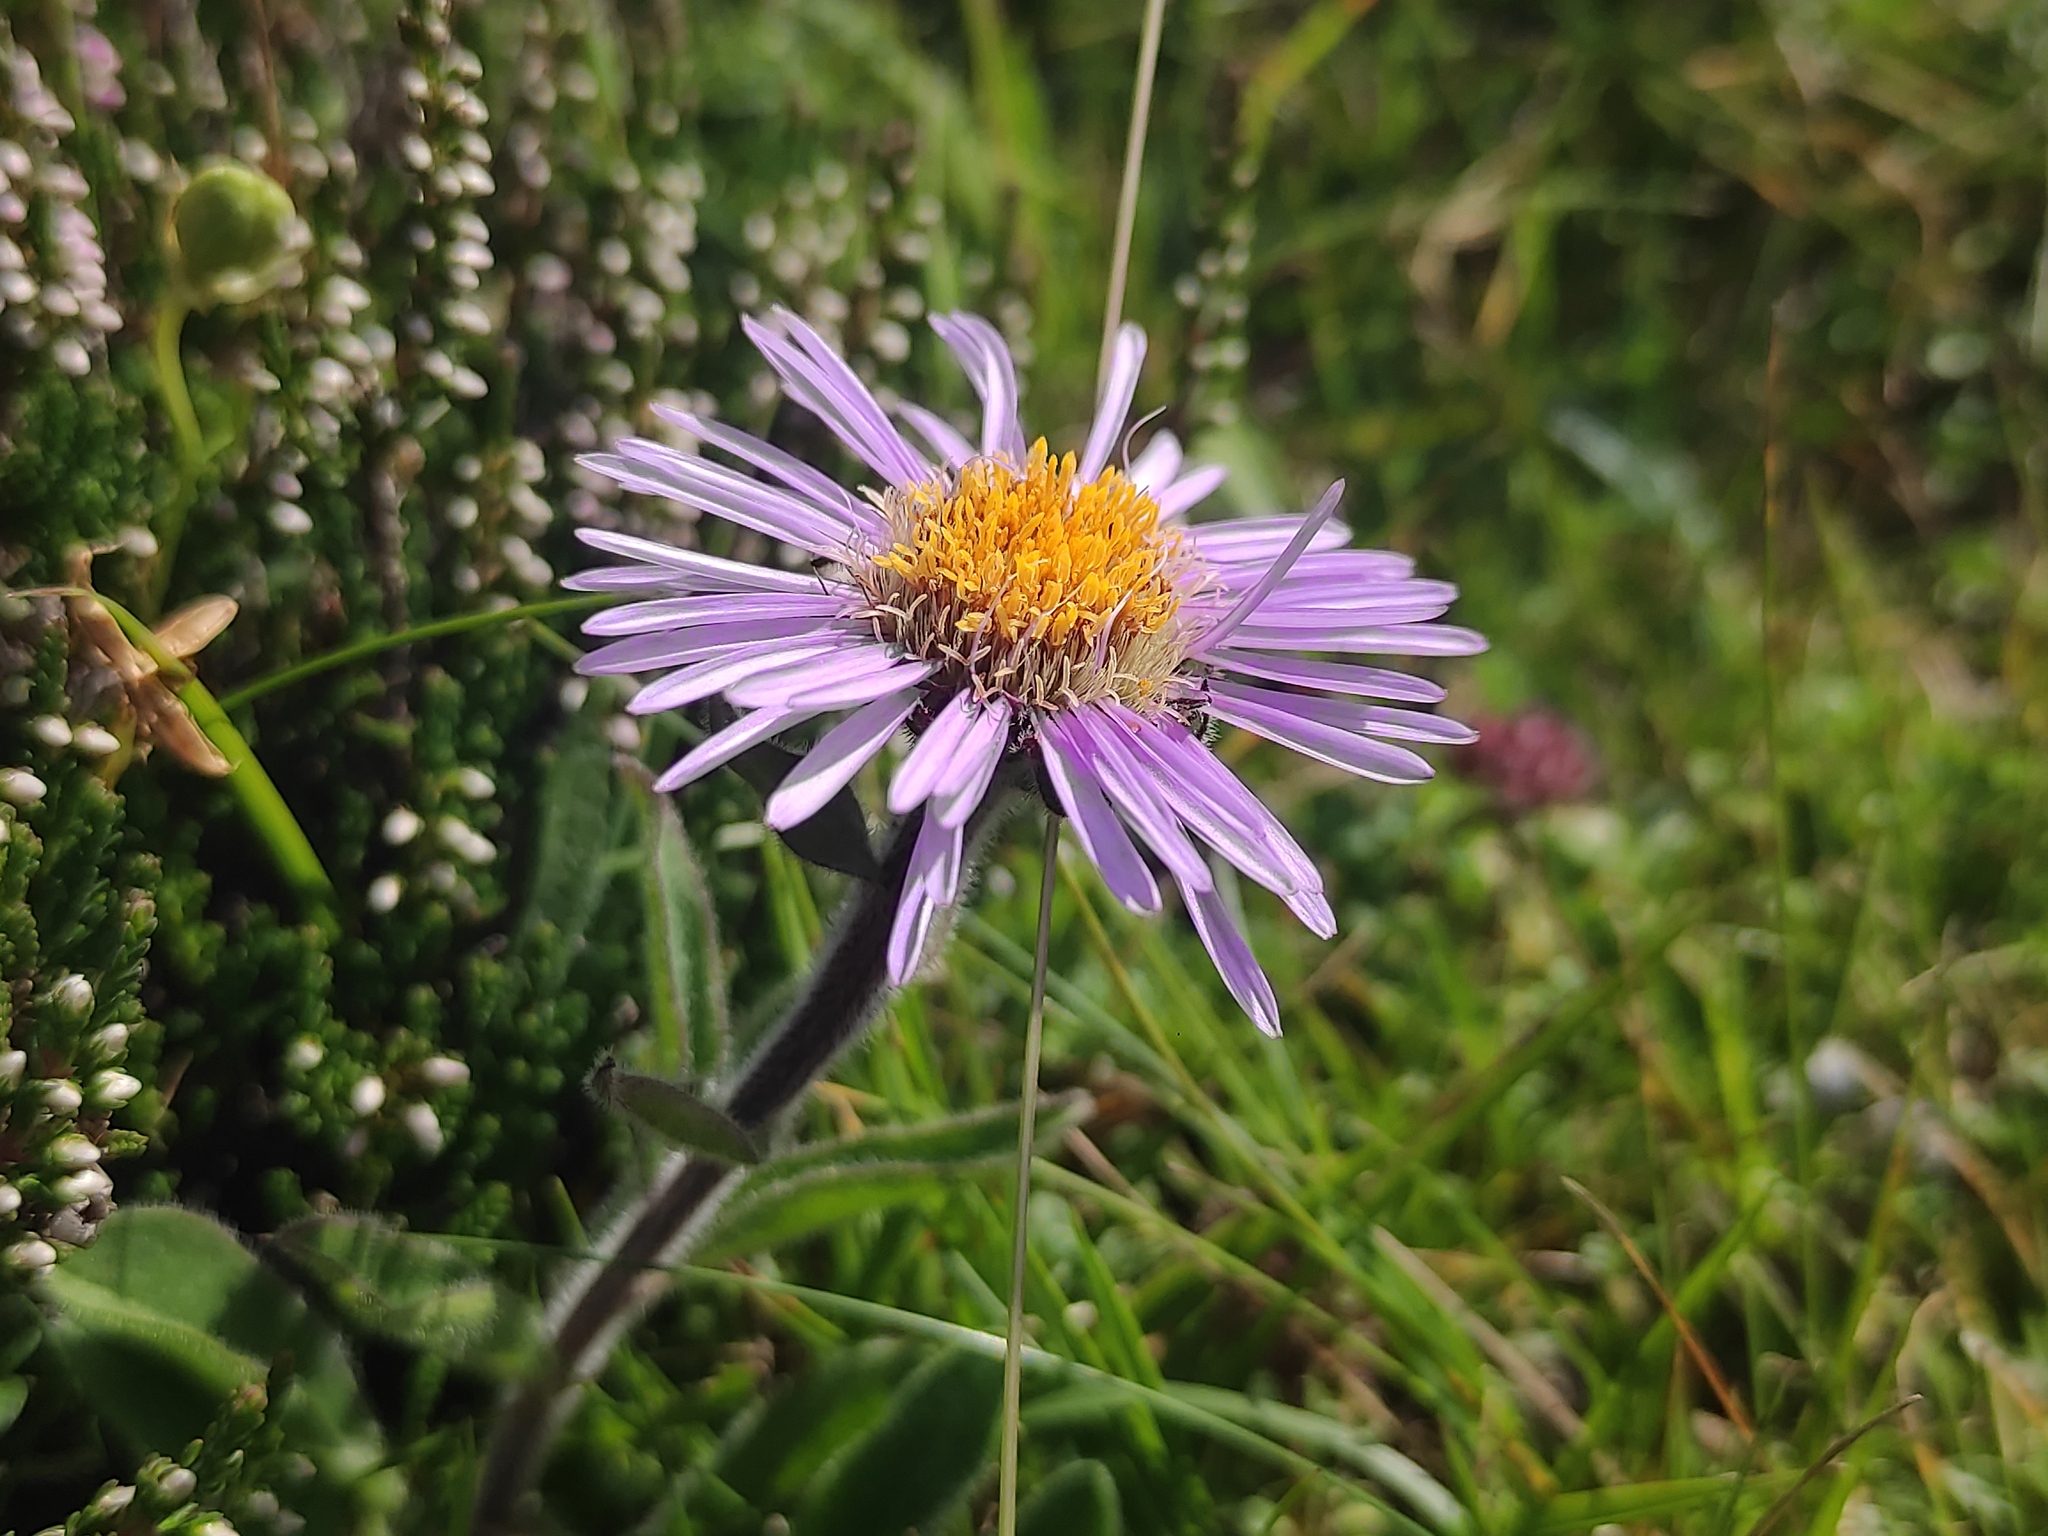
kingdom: Plantae
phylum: Tracheophyta
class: Magnoliopsida
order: Asterales
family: Asteraceae
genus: Aster
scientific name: Aster alpinus
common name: Alpine aster
